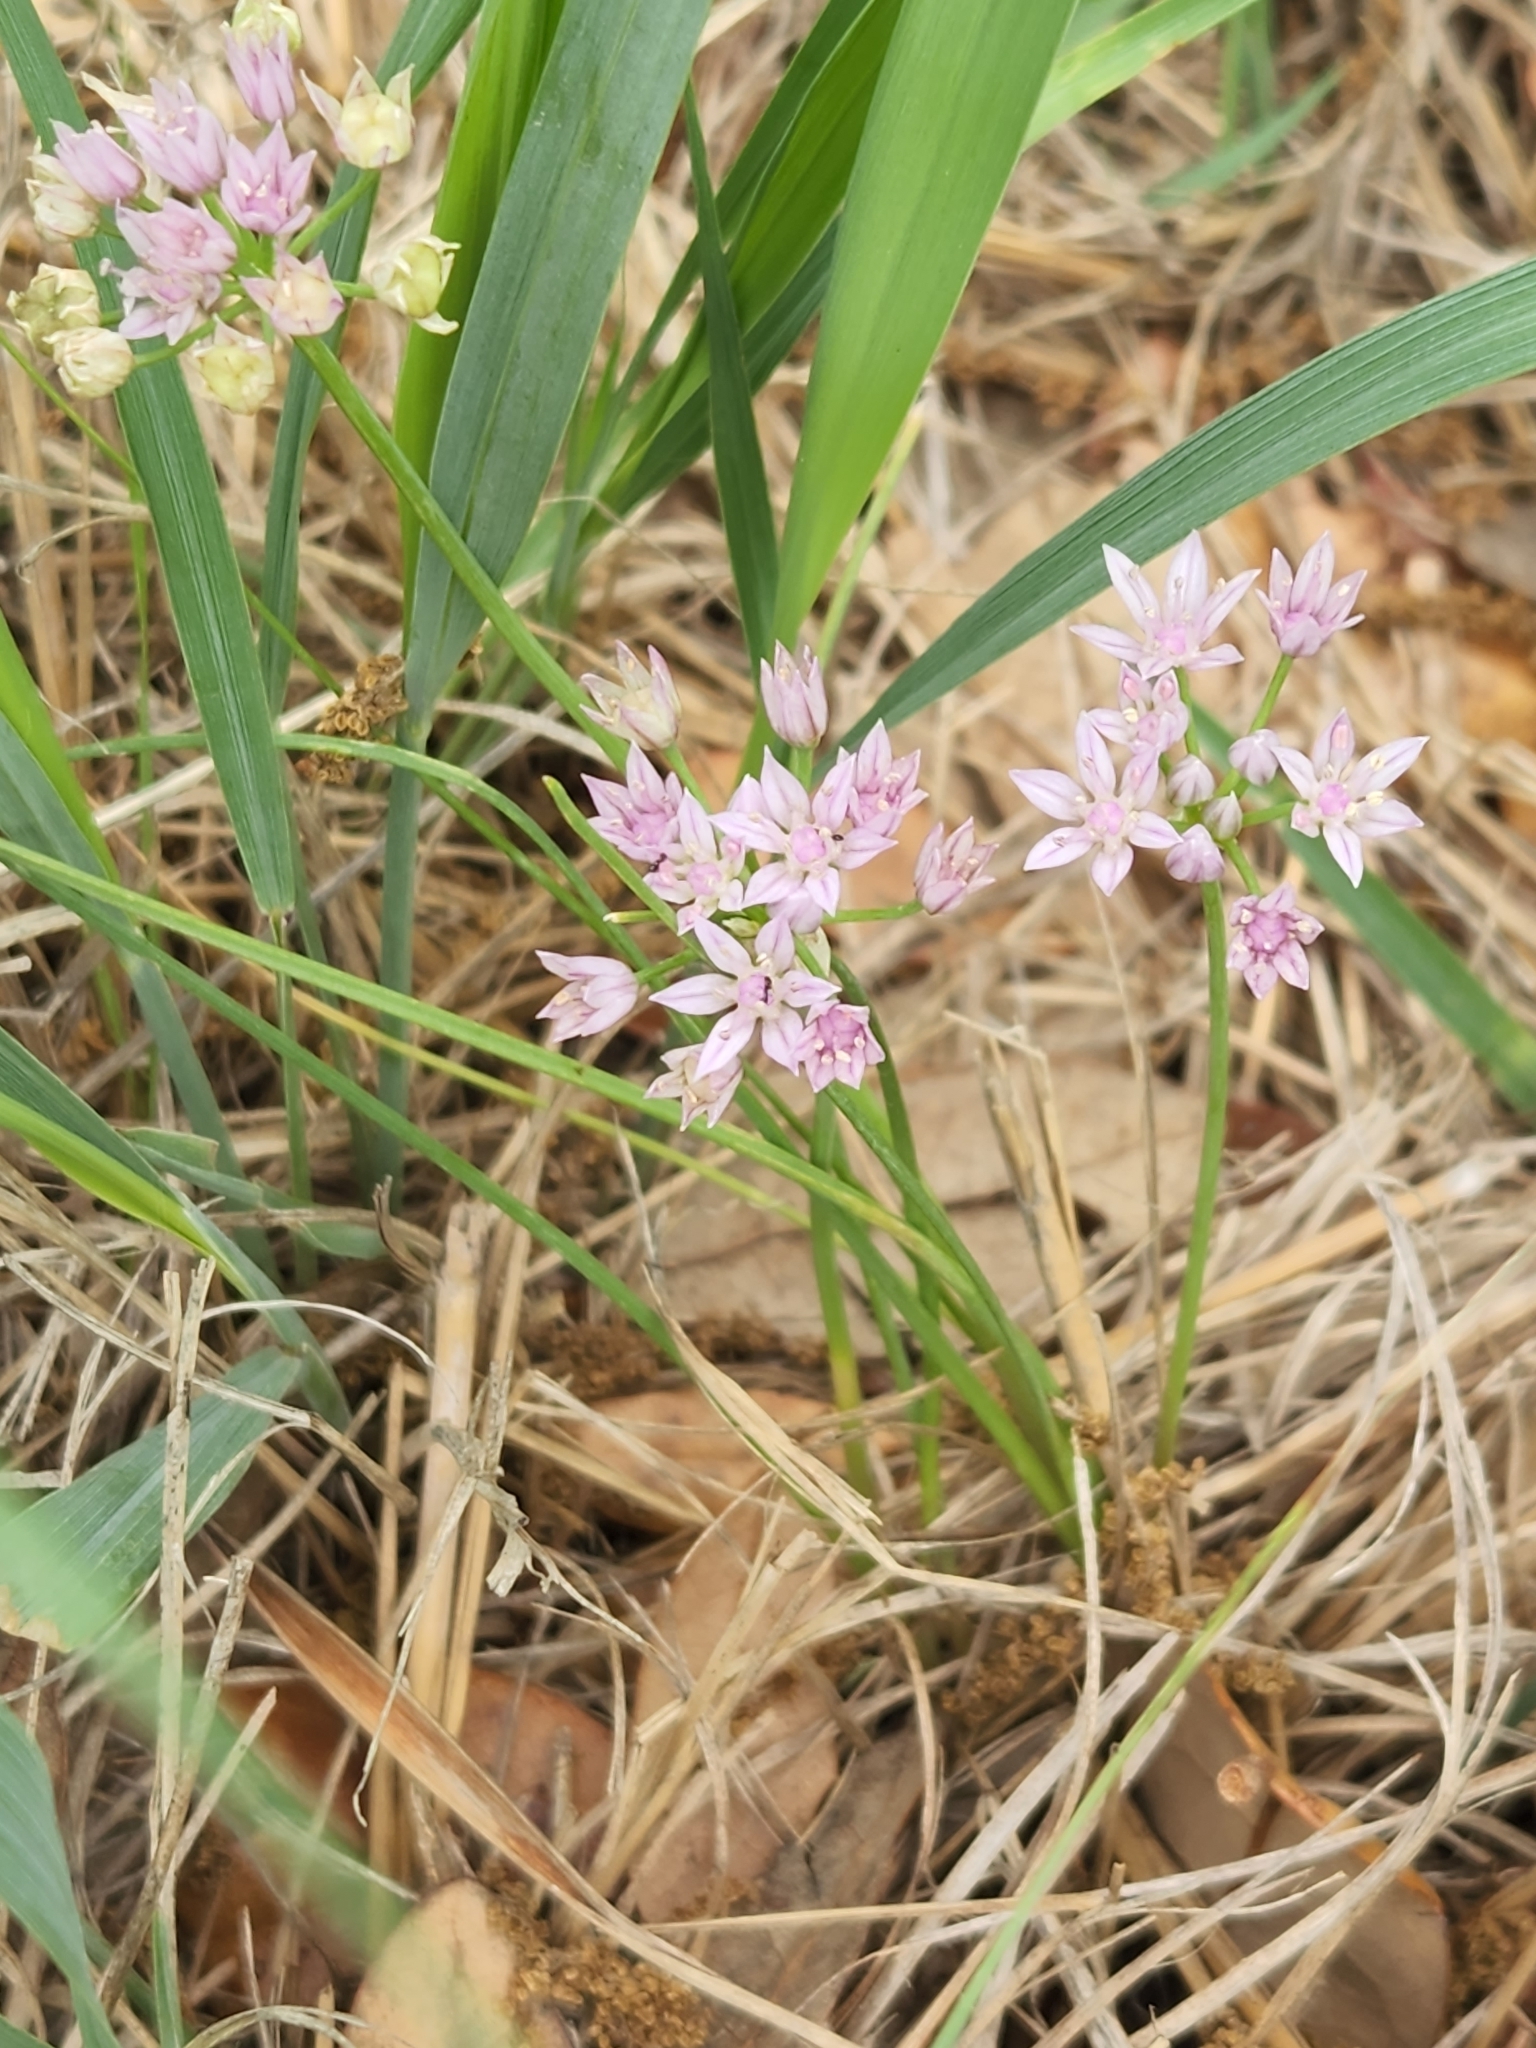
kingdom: Plantae
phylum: Tracheophyta
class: Liliopsida
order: Asparagales
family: Amaryllidaceae
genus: Allium
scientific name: Allium drummondii
